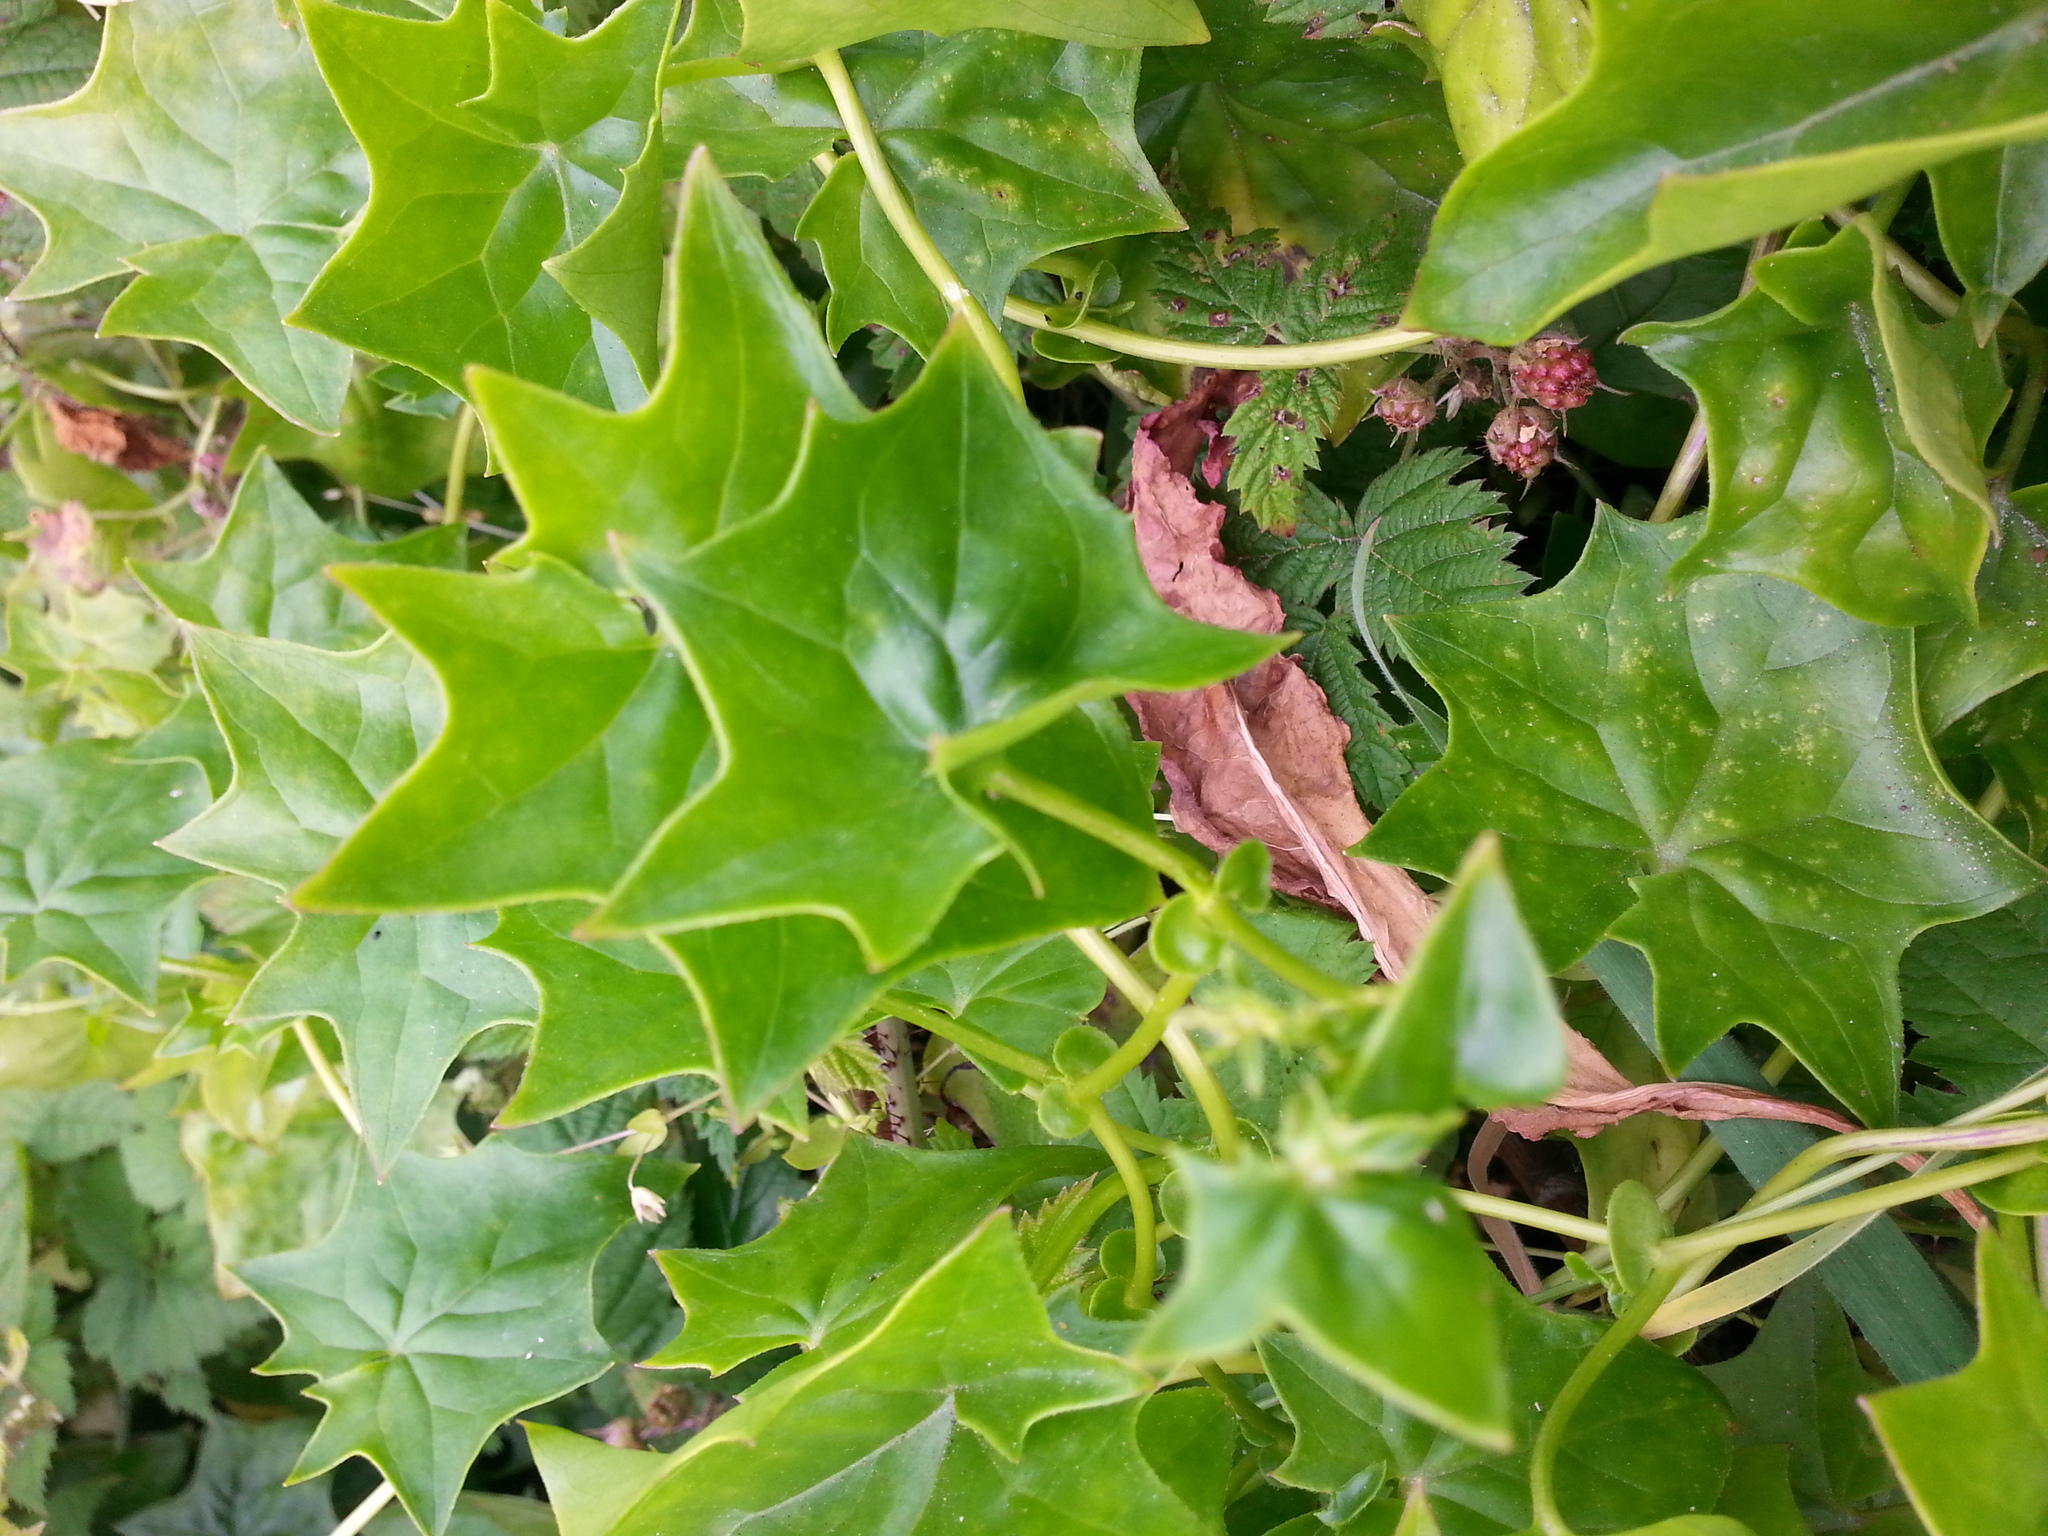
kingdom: Plantae
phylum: Tracheophyta
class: Magnoliopsida
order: Asterales
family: Asteraceae
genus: Delairea
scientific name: Delairea odorata
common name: Cape-ivy
